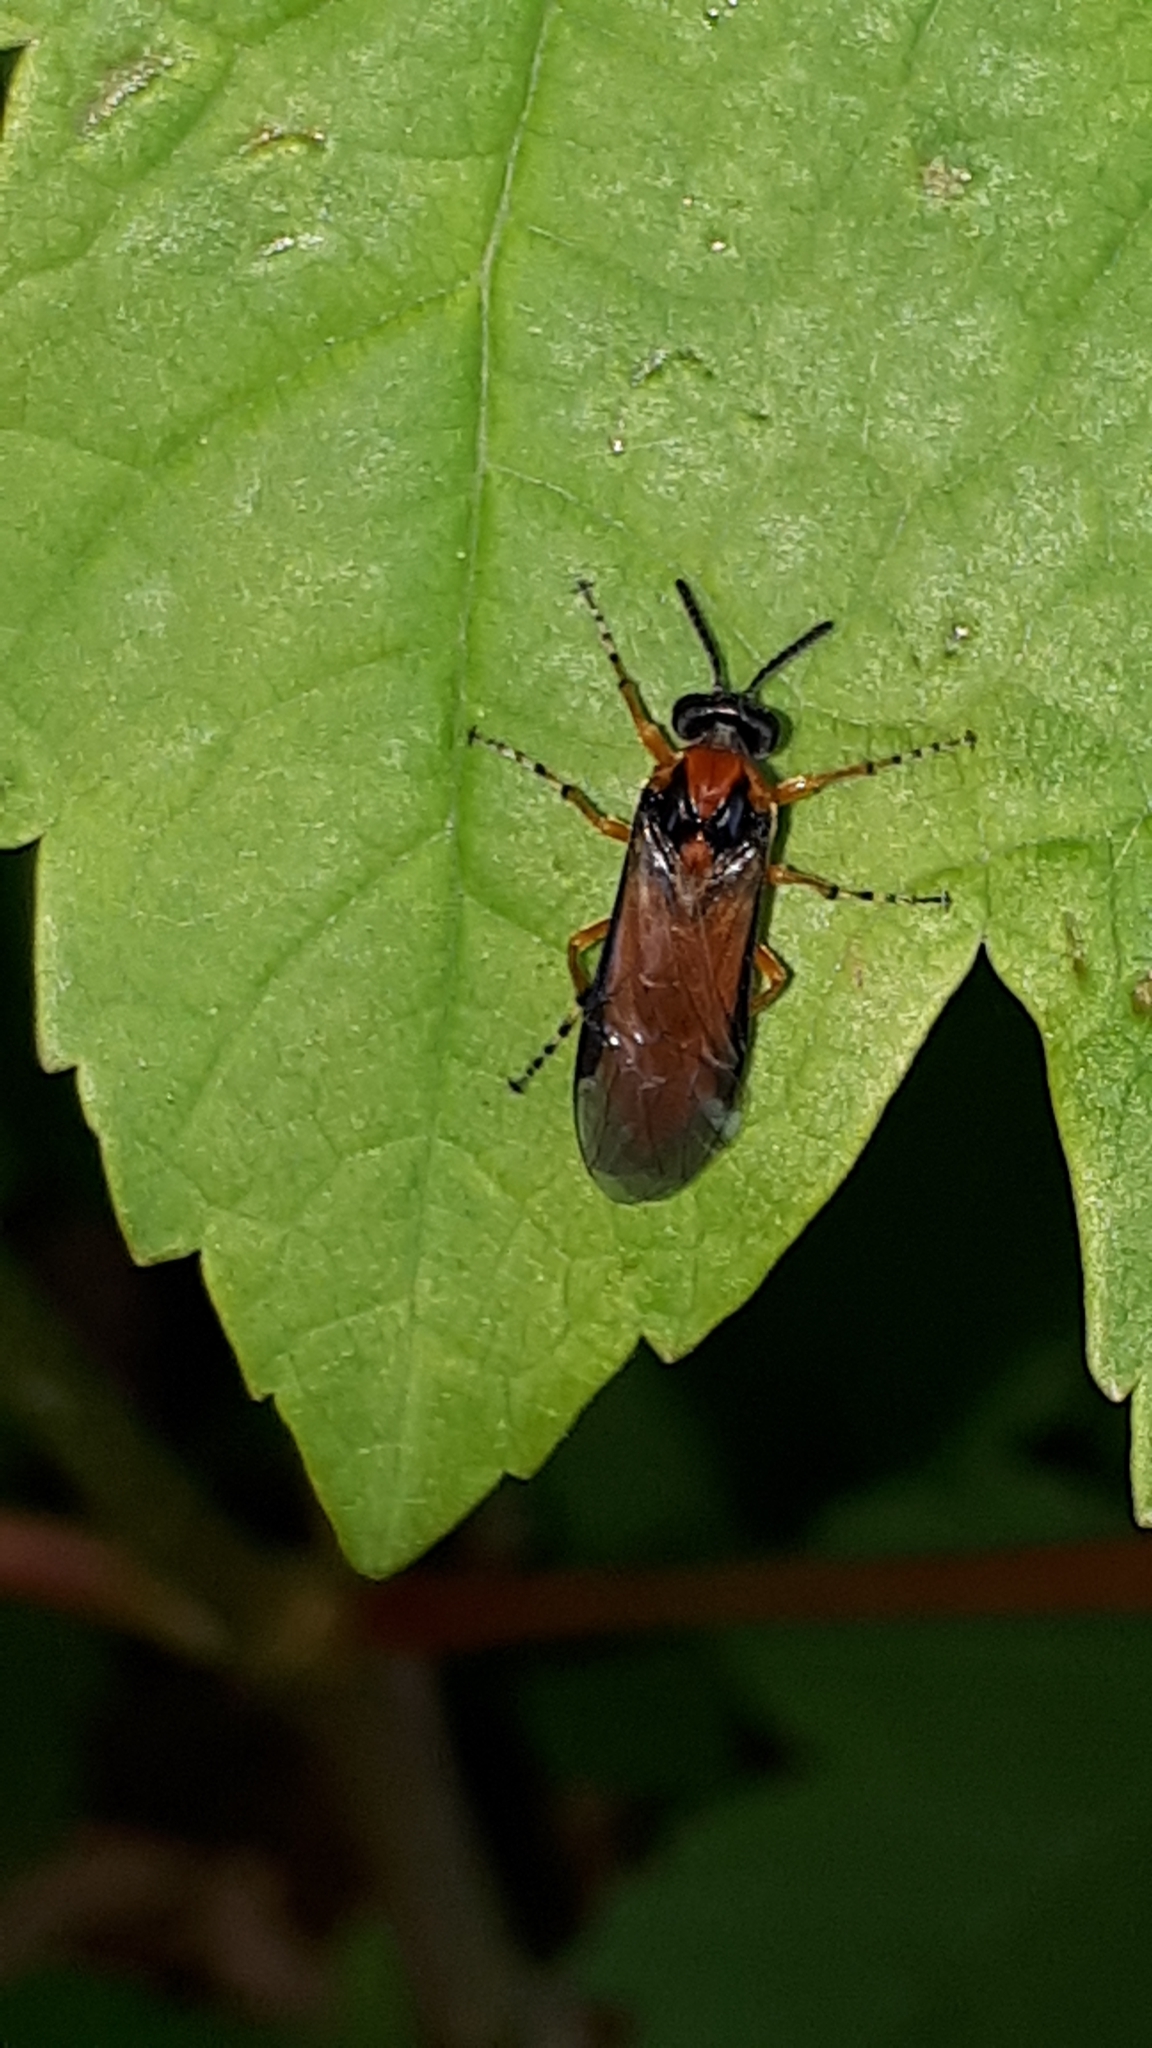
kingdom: Animalia
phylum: Arthropoda
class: Insecta
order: Hymenoptera
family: Tenthredinidae
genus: Athalia
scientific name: Athalia rosae
